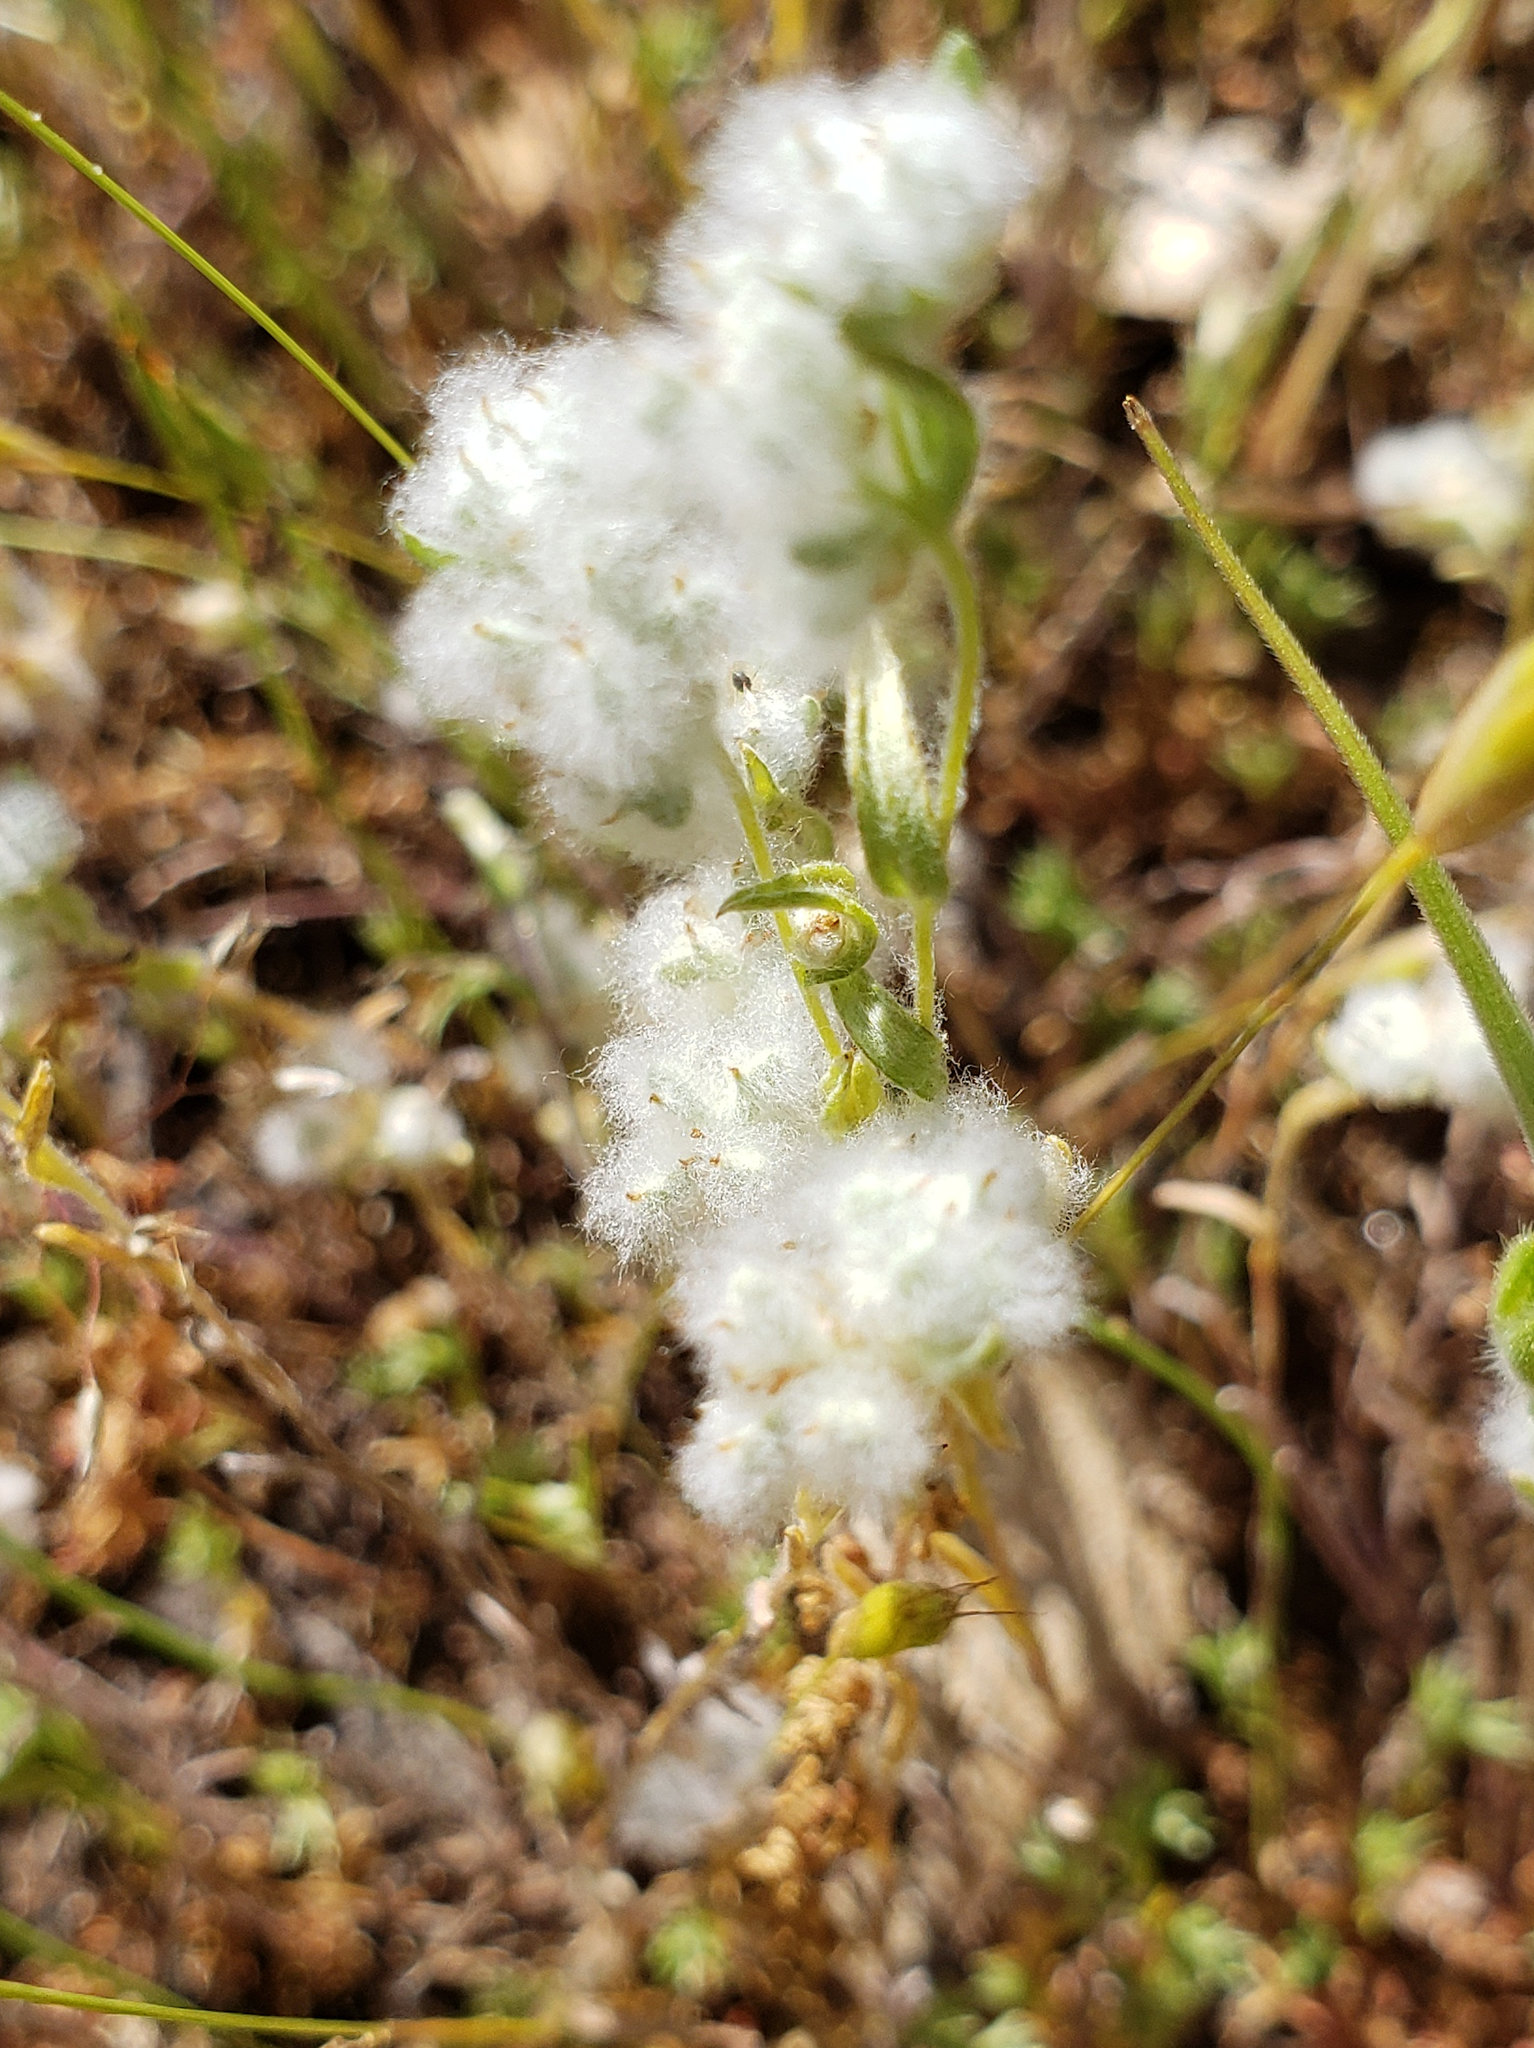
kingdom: Plantae
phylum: Tracheophyta
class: Magnoliopsida
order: Asterales
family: Asteraceae
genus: Bombycilaena
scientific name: Bombycilaena californica
